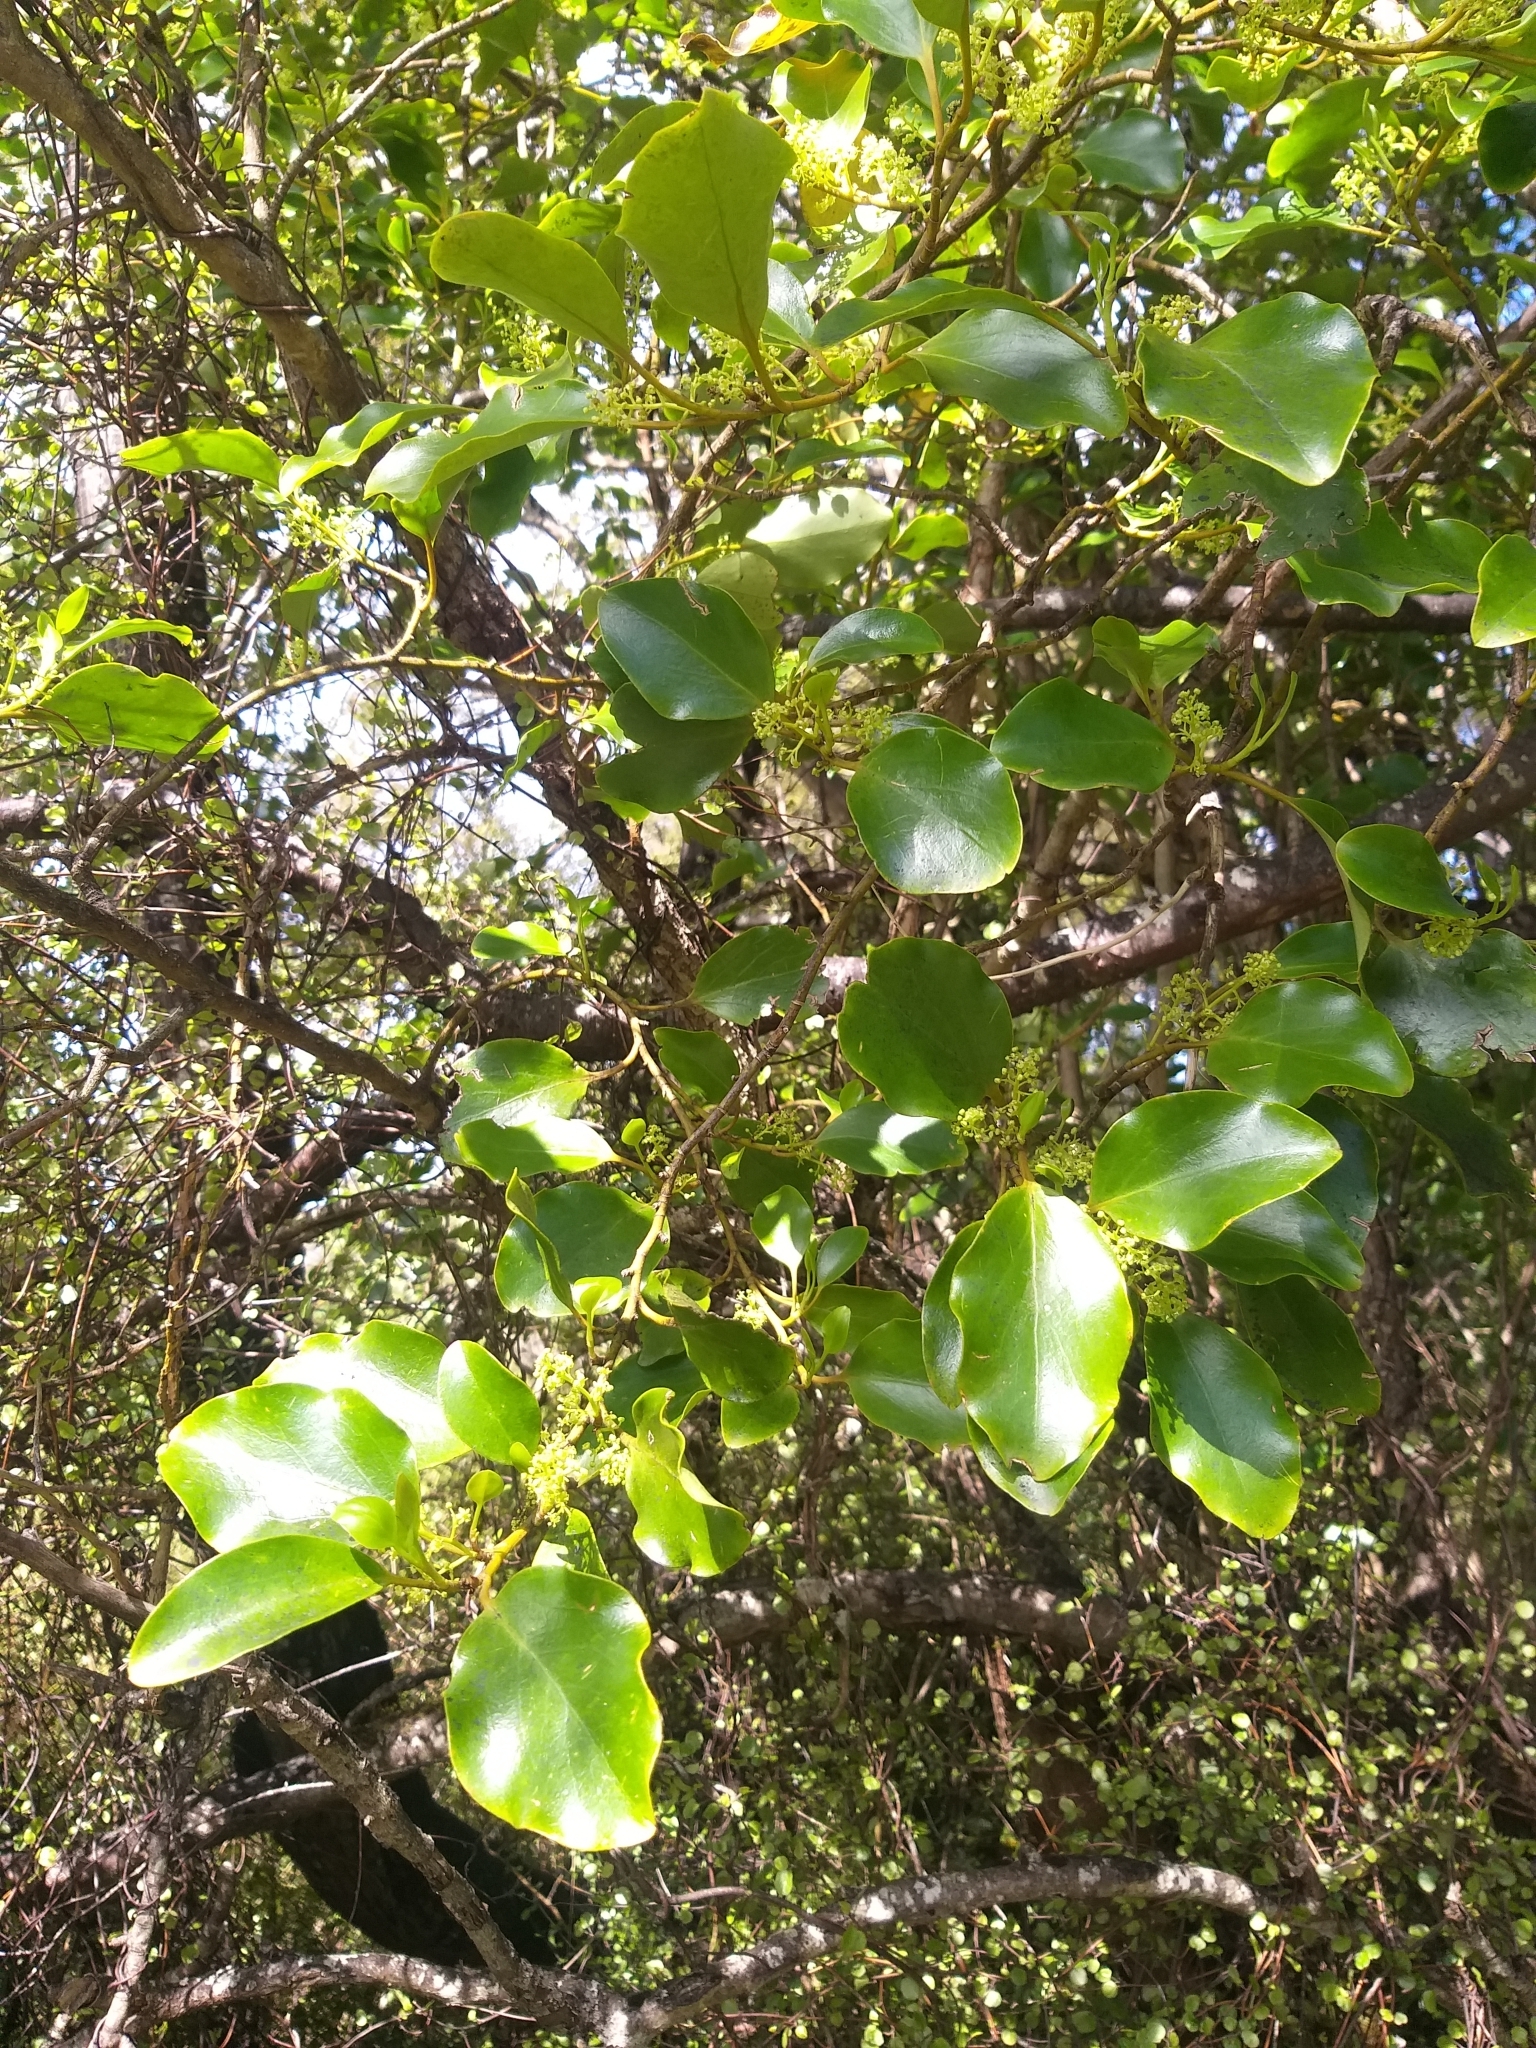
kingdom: Plantae
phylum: Tracheophyta
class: Magnoliopsida
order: Apiales
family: Griseliniaceae
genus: Griselinia
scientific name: Griselinia littoralis
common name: New zealand broadleaf
